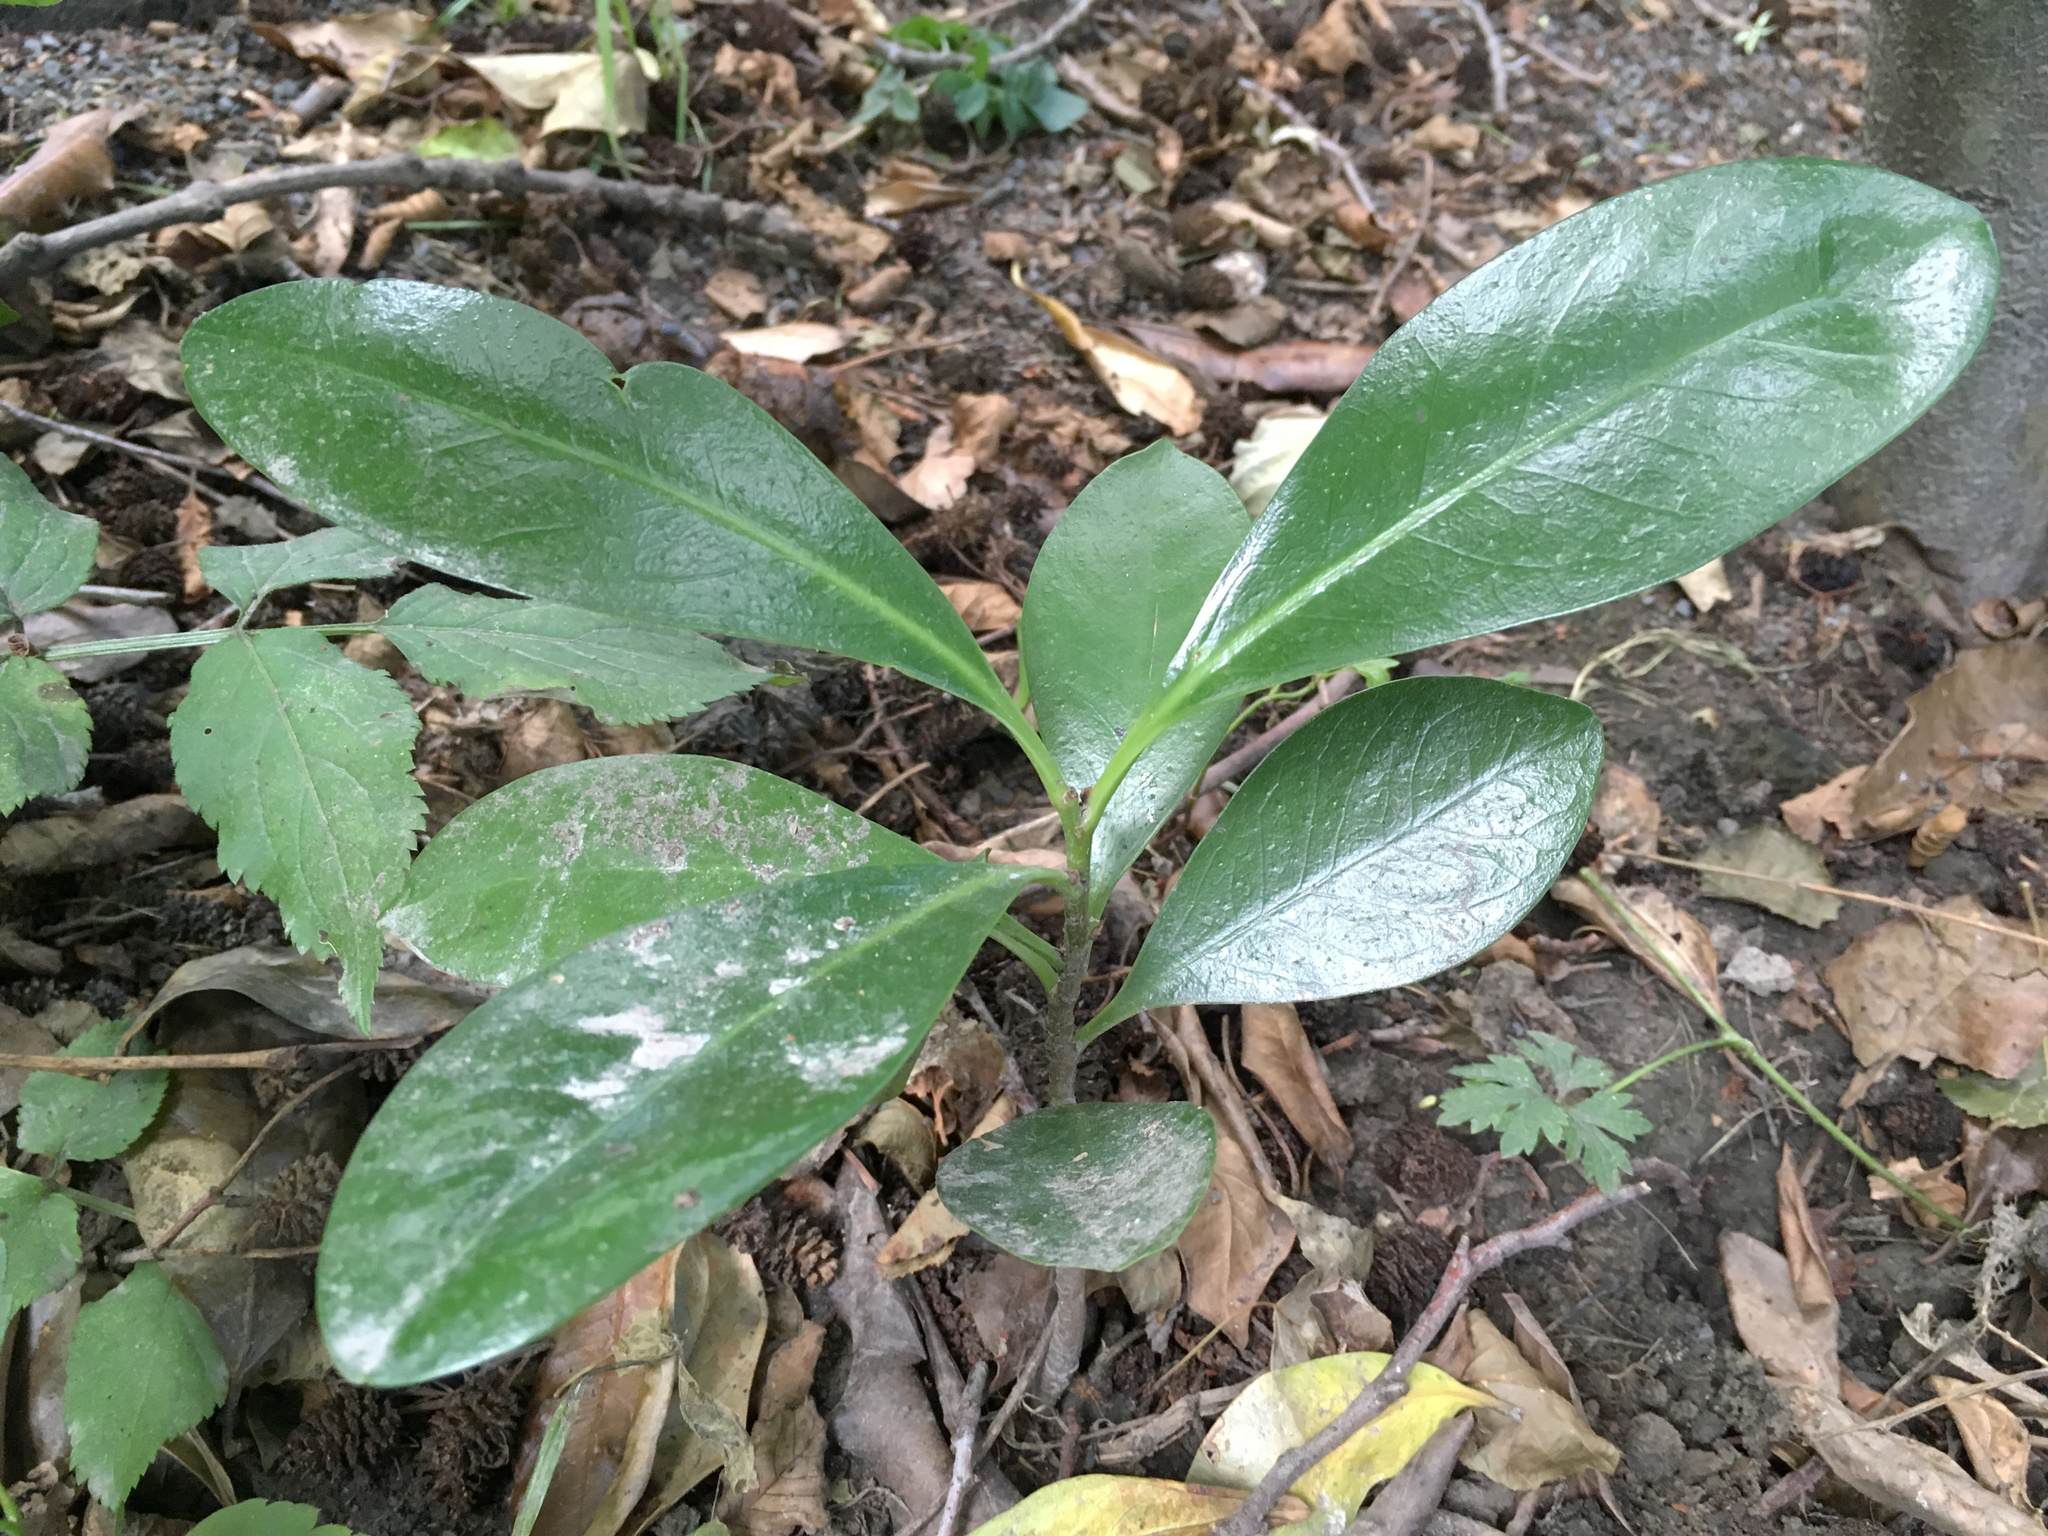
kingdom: Plantae
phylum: Tracheophyta
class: Magnoliopsida
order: Cucurbitales
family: Corynocarpaceae
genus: Corynocarpus
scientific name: Corynocarpus laevigatus
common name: New zealand laurel
